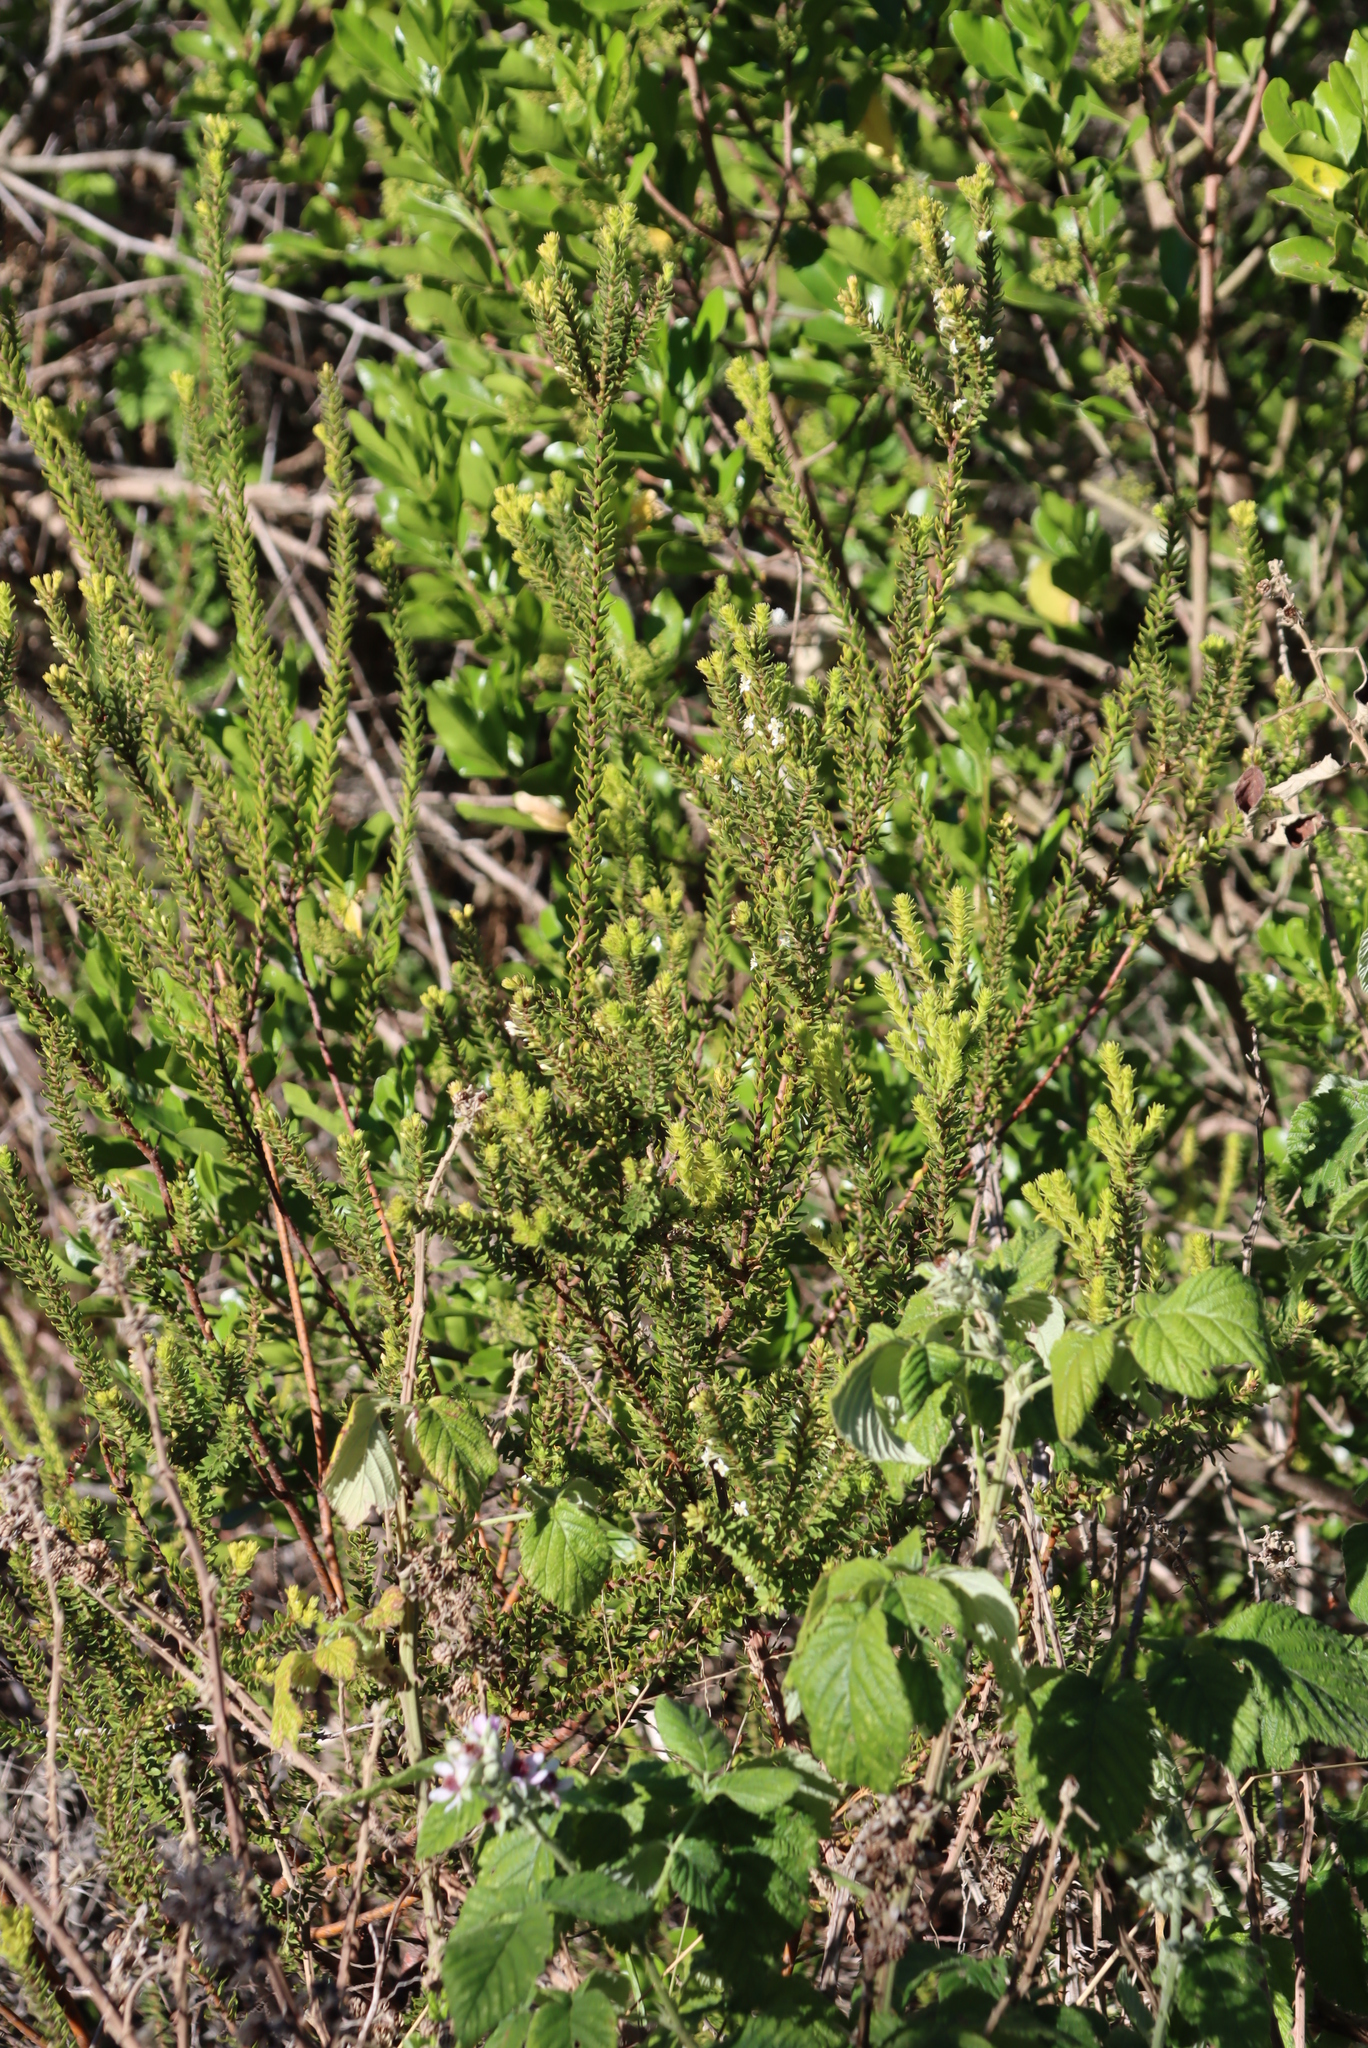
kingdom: Plantae
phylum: Tracheophyta
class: Magnoliopsida
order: Malvales
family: Thymelaeaceae
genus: Struthiola
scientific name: Struthiola hirsuta
